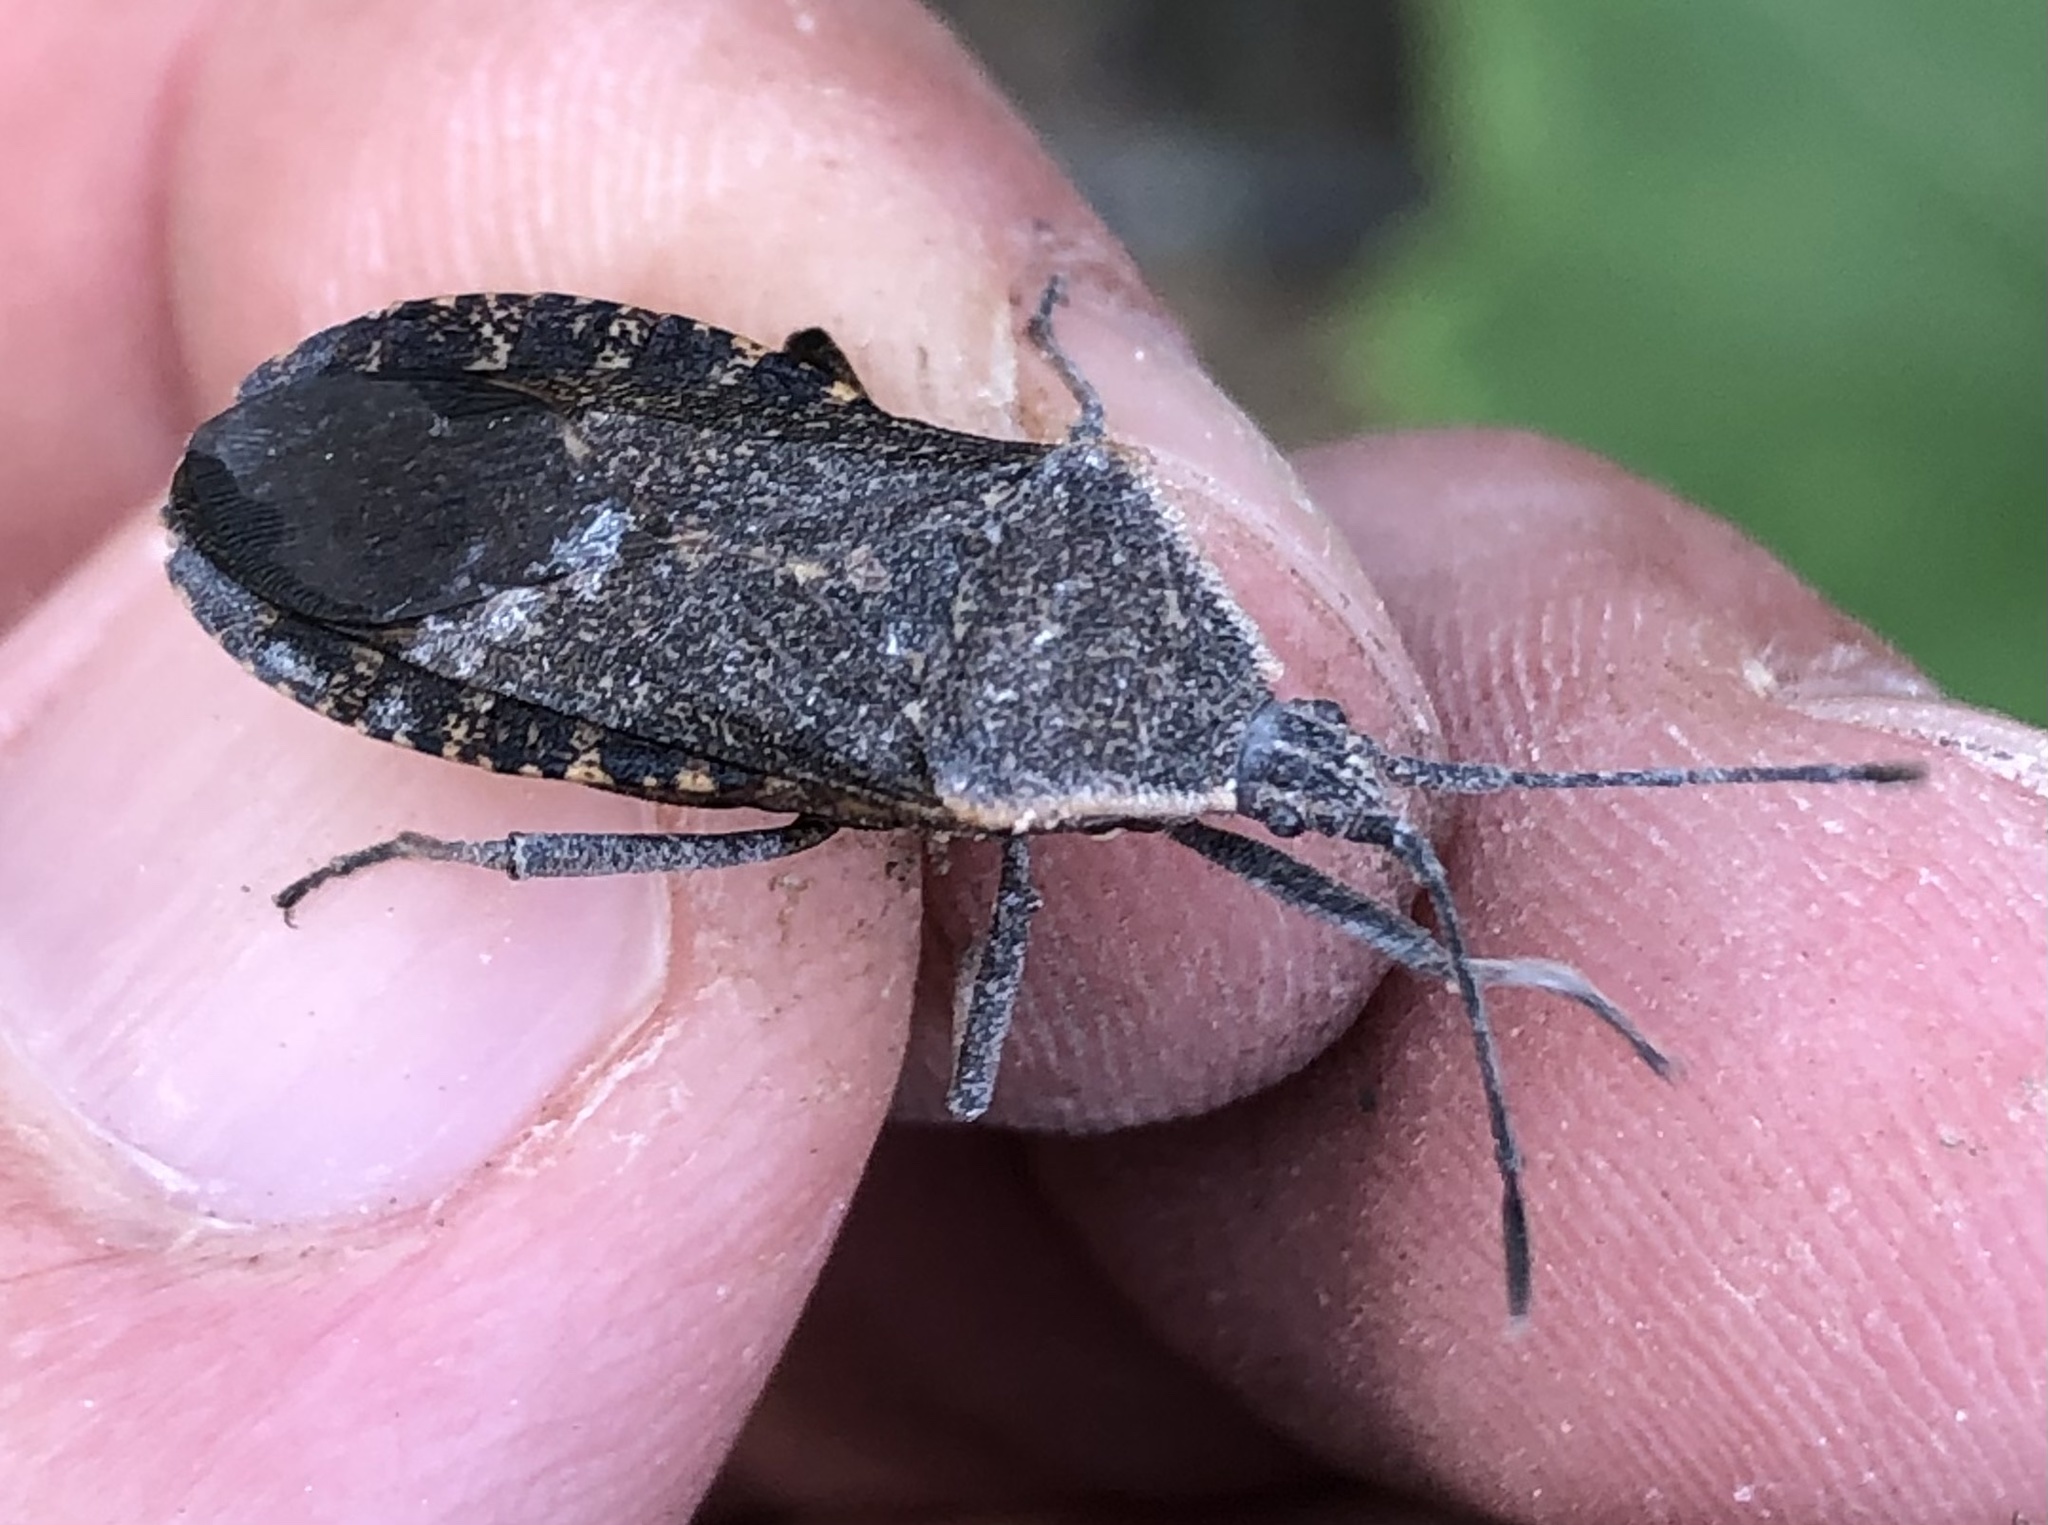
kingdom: Animalia
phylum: Arthropoda
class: Insecta
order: Hemiptera
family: Coreidae
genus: Anasa
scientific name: Anasa tristis
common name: Squash bug
